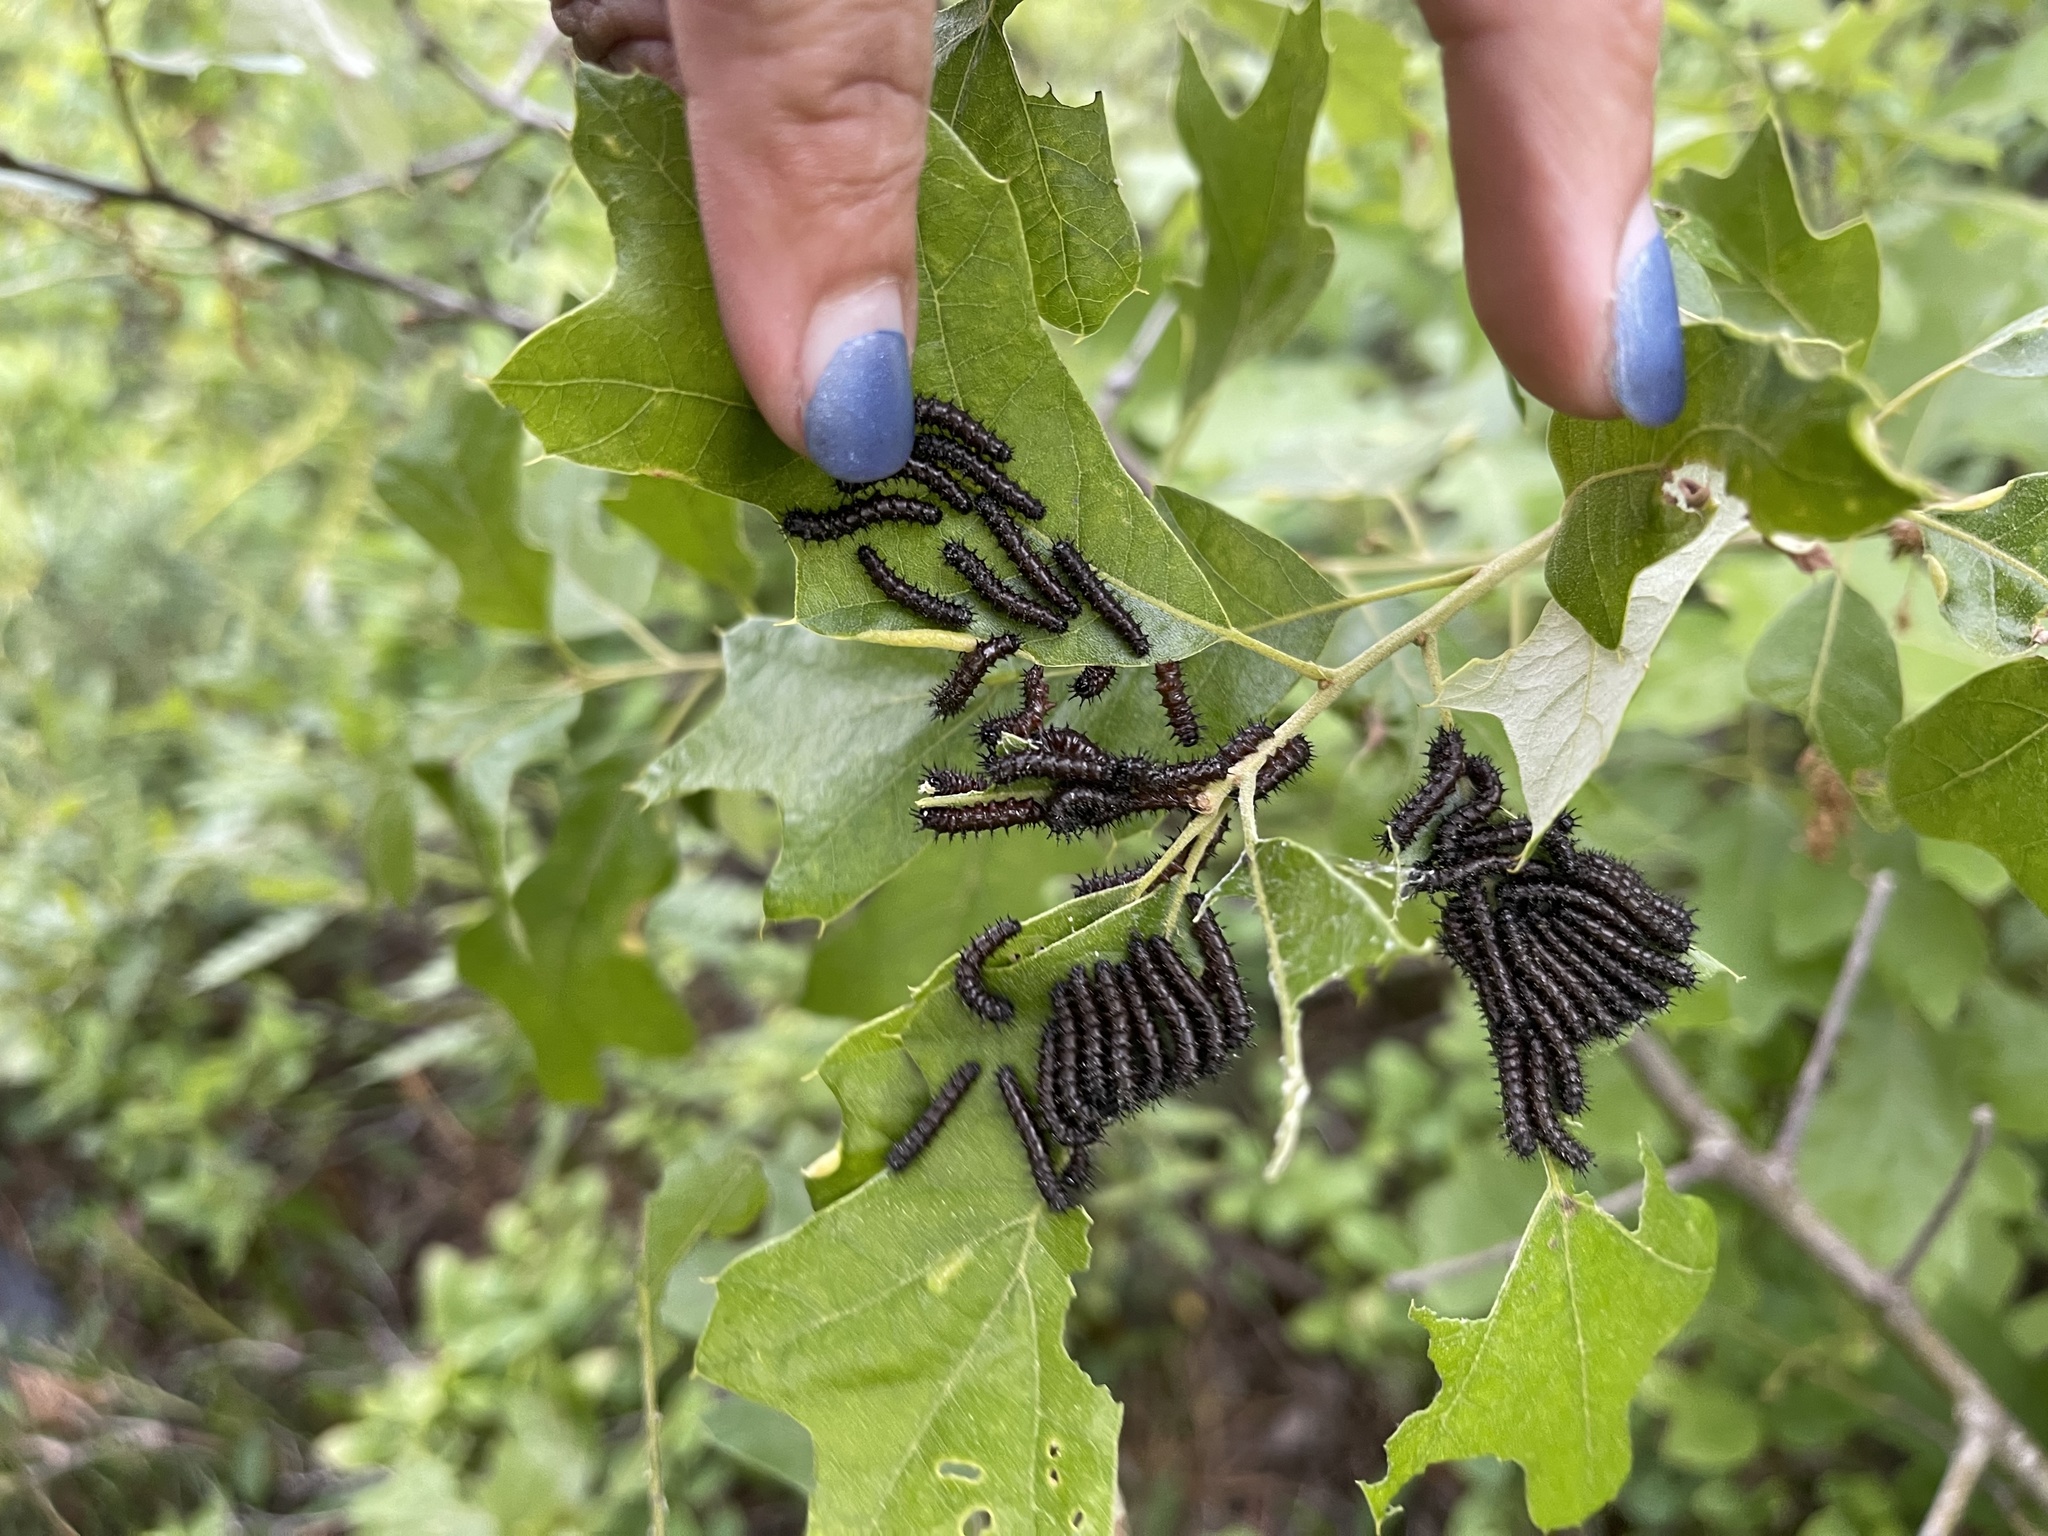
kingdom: Animalia
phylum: Arthropoda
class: Insecta
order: Lepidoptera
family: Saturniidae
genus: Hemileuca
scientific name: Hemileuca maia
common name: Eastern buckmoth
